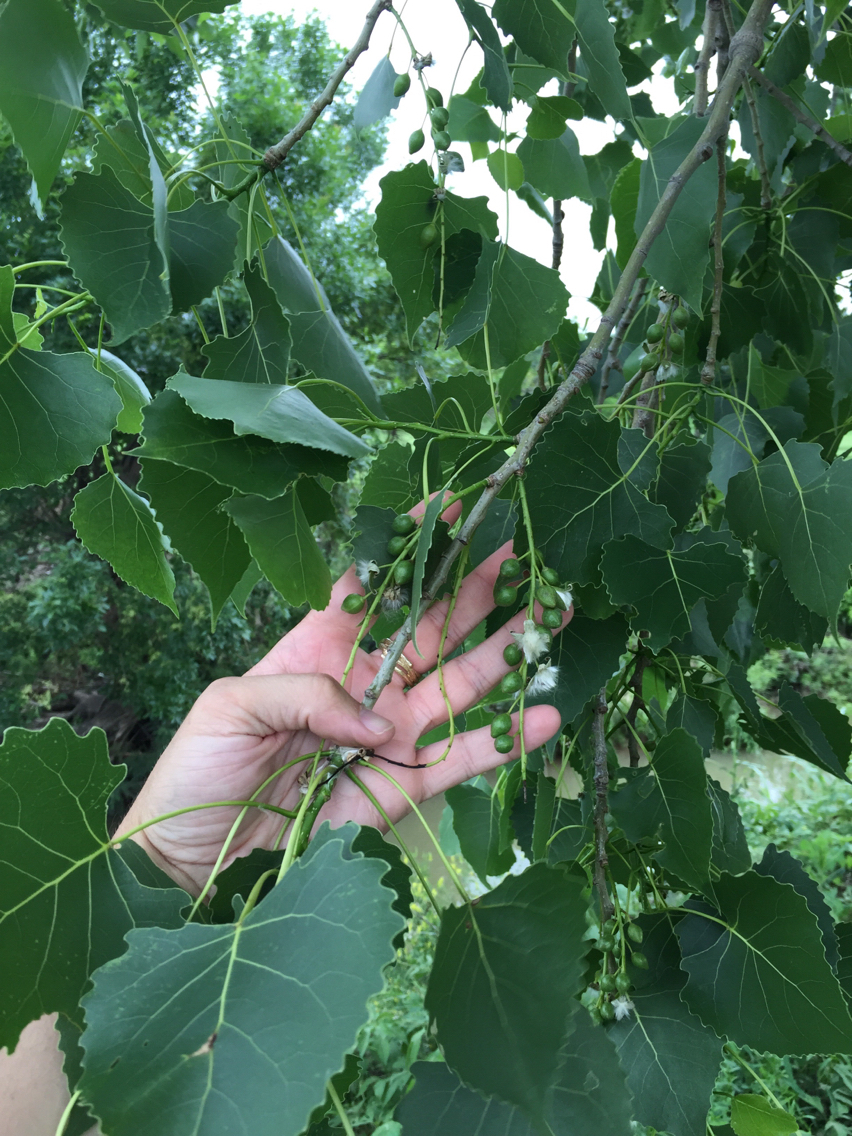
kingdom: Plantae
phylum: Tracheophyta
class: Magnoliopsida
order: Malpighiales
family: Salicaceae
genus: Populus
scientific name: Populus deltoides
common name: Eastern cottonwood
